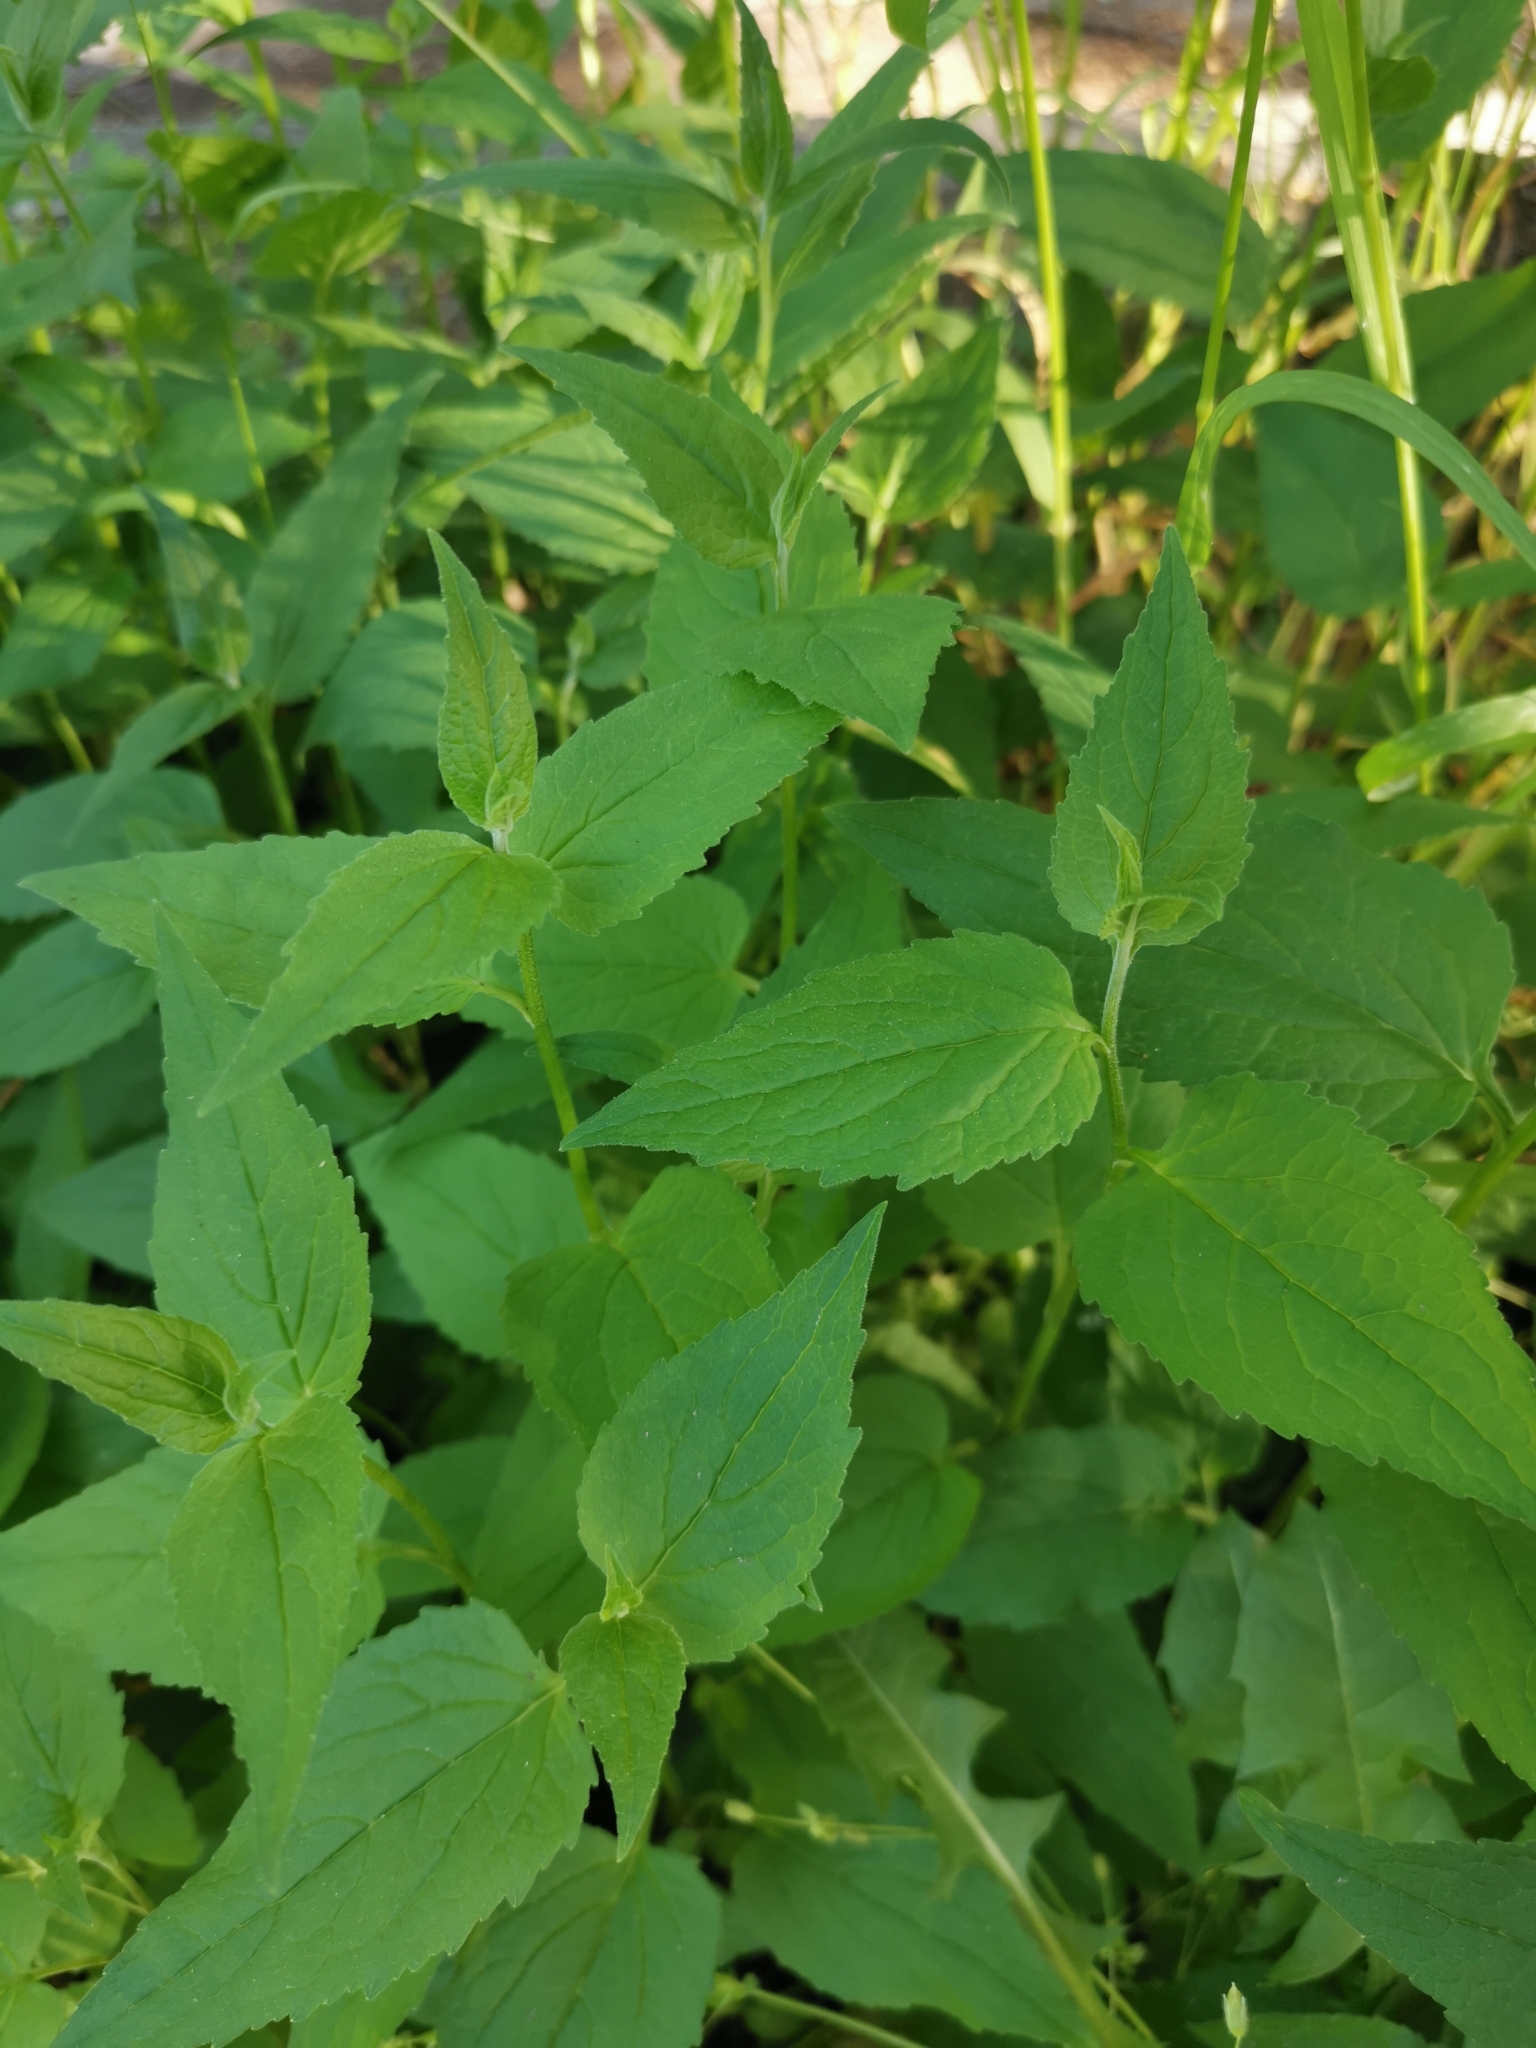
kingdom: Plantae
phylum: Tracheophyta
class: Magnoliopsida
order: Asterales
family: Campanulaceae
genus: Campanula
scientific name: Campanula rapunculoides
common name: Creeping bellflower
